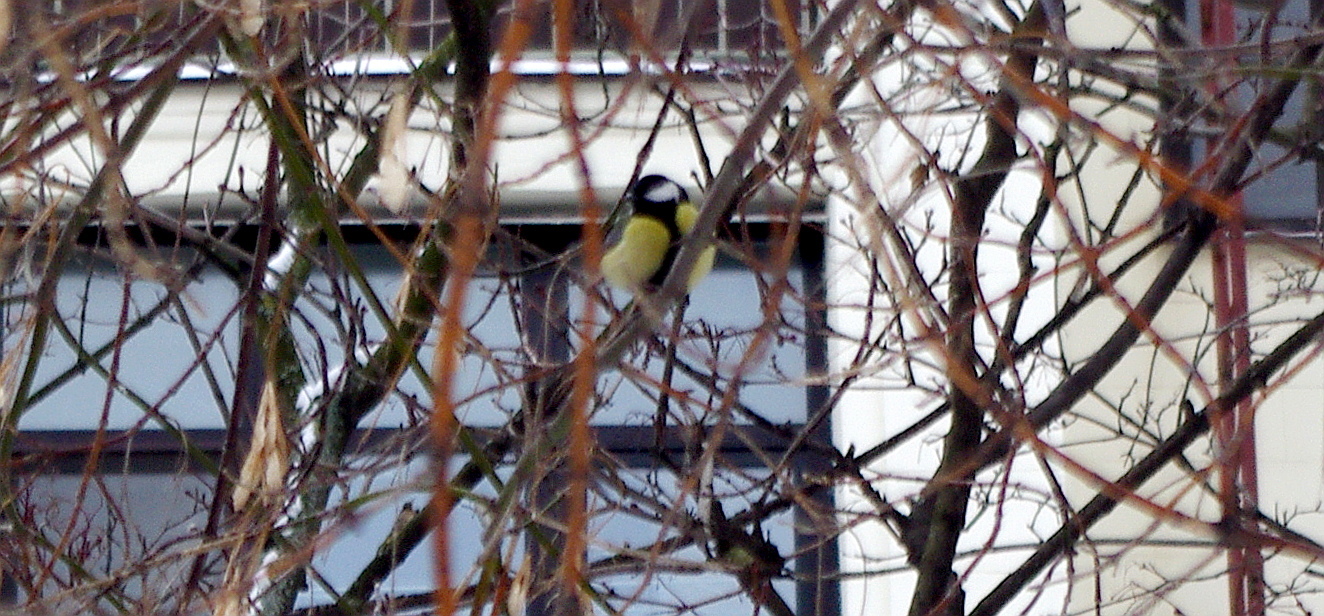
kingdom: Animalia
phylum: Chordata
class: Aves
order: Passeriformes
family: Paridae
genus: Parus
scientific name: Parus major
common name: Great tit
